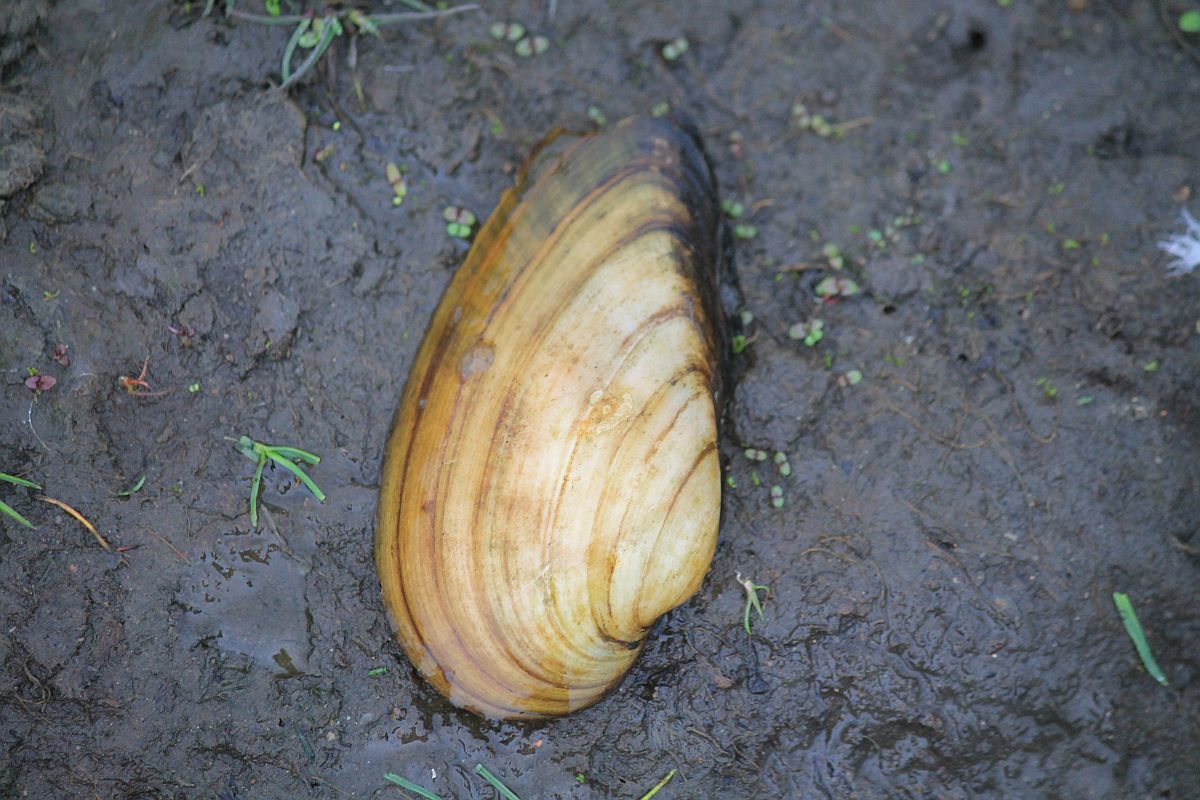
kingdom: Animalia
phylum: Mollusca
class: Bivalvia
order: Unionida
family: Unionidae
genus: Unio
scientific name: Unio tumidus
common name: Swollen river mussel
